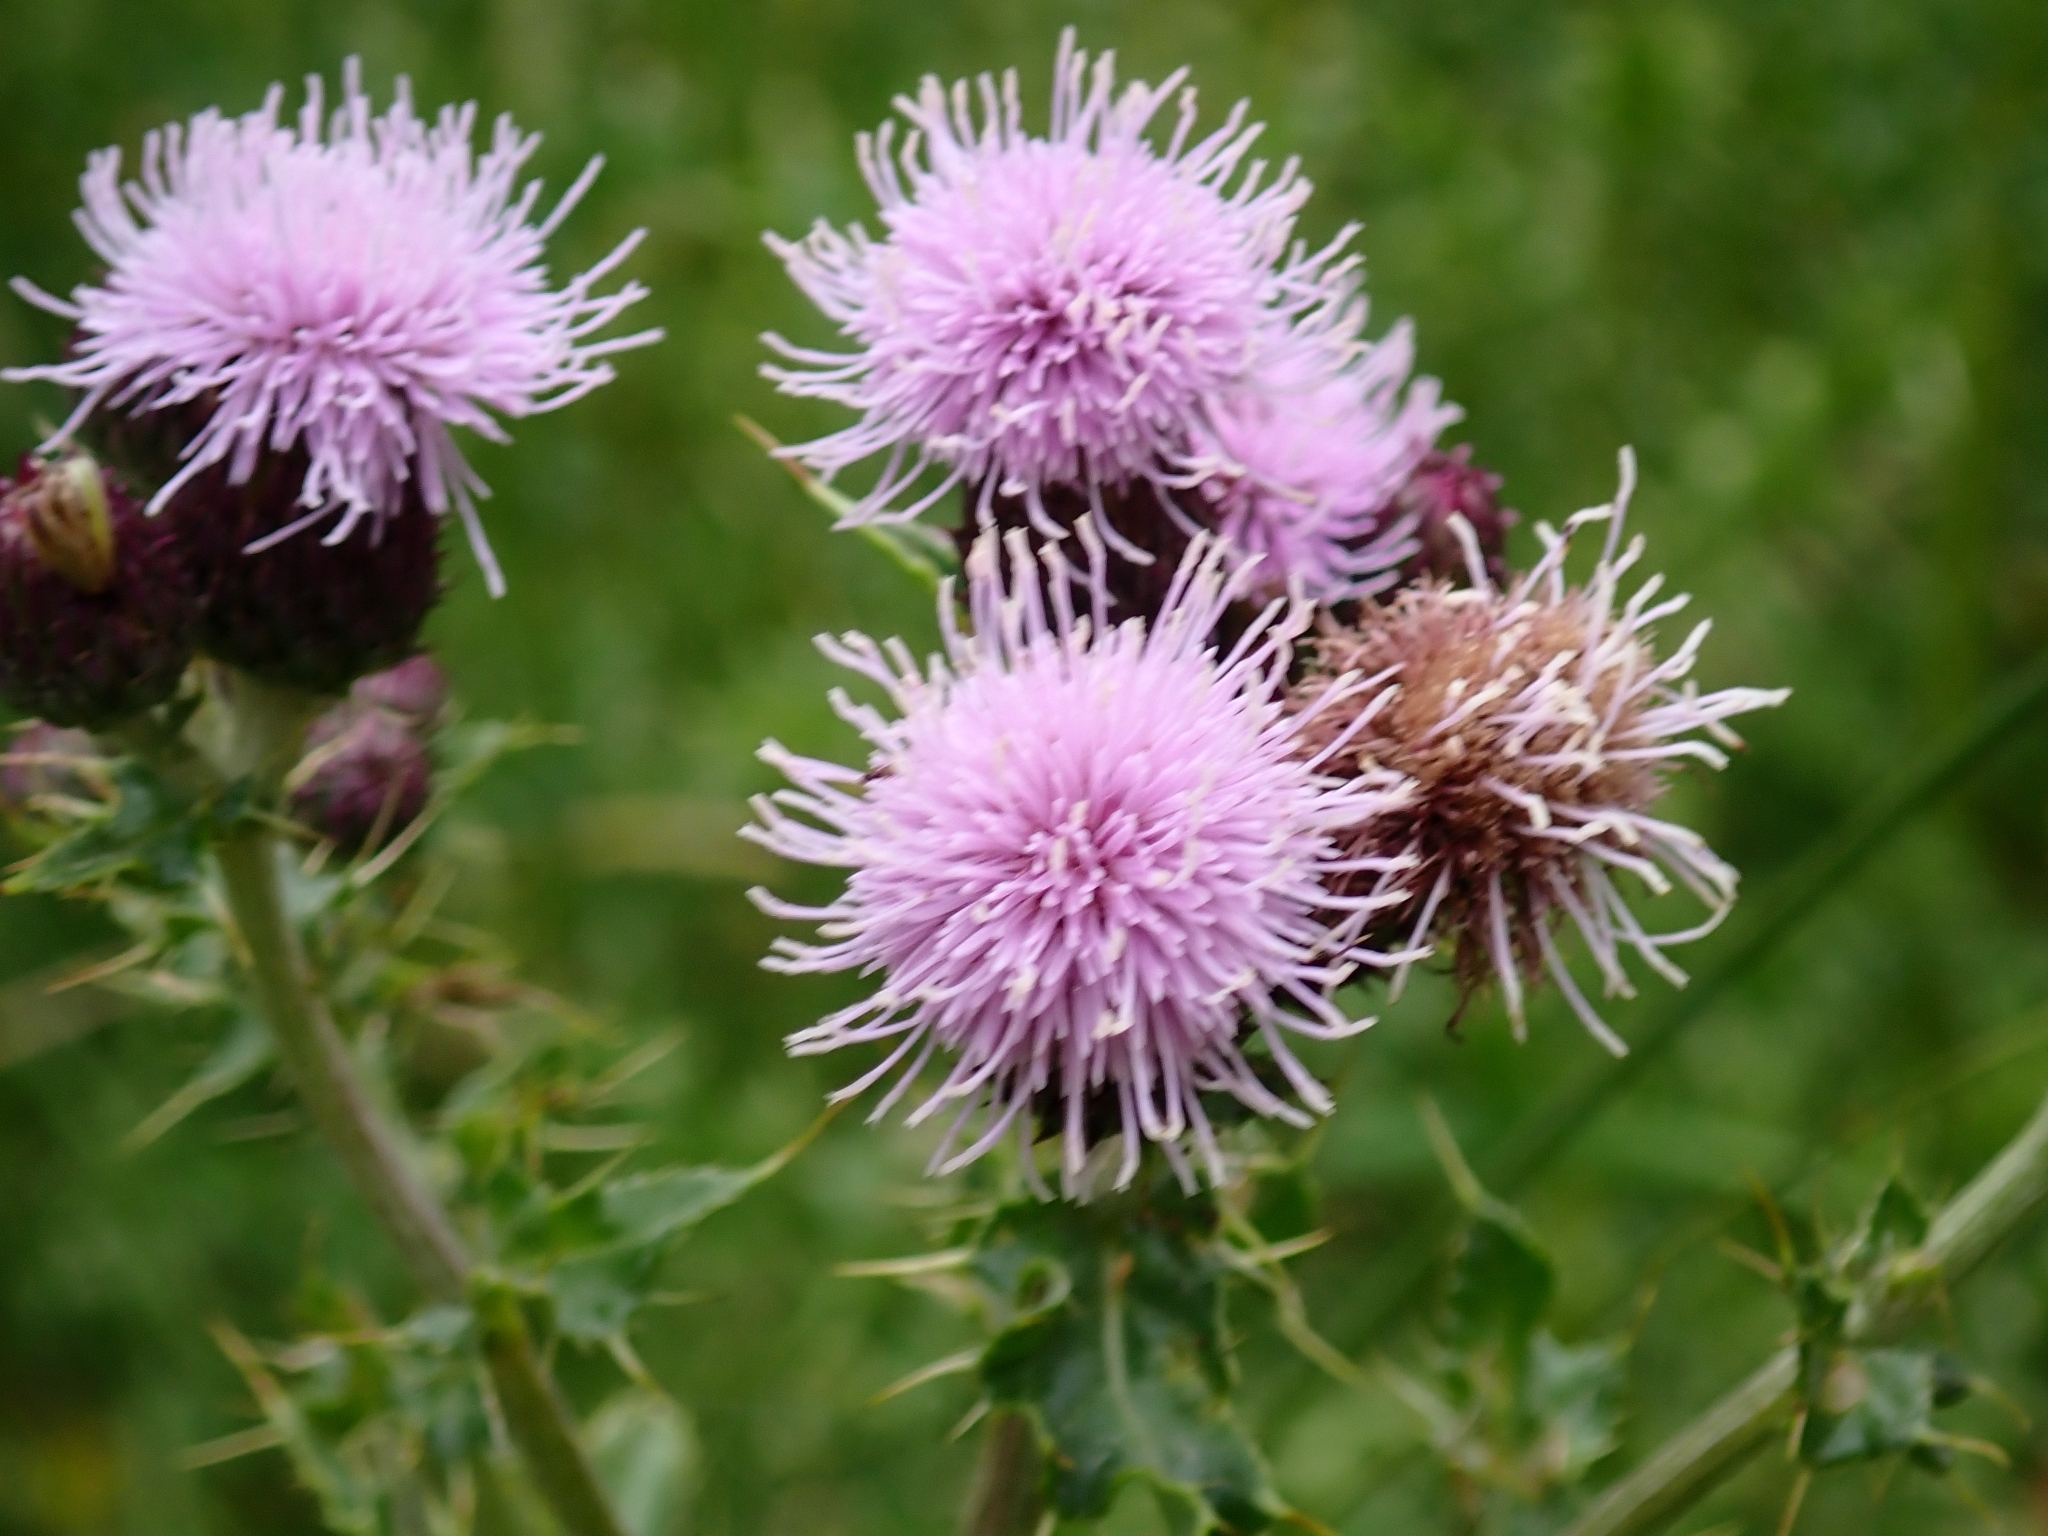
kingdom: Plantae
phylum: Tracheophyta
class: Magnoliopsida
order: Asterales
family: Asteraceae
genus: Cirsium
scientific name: Cirsium arvense
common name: Creeping thistle
